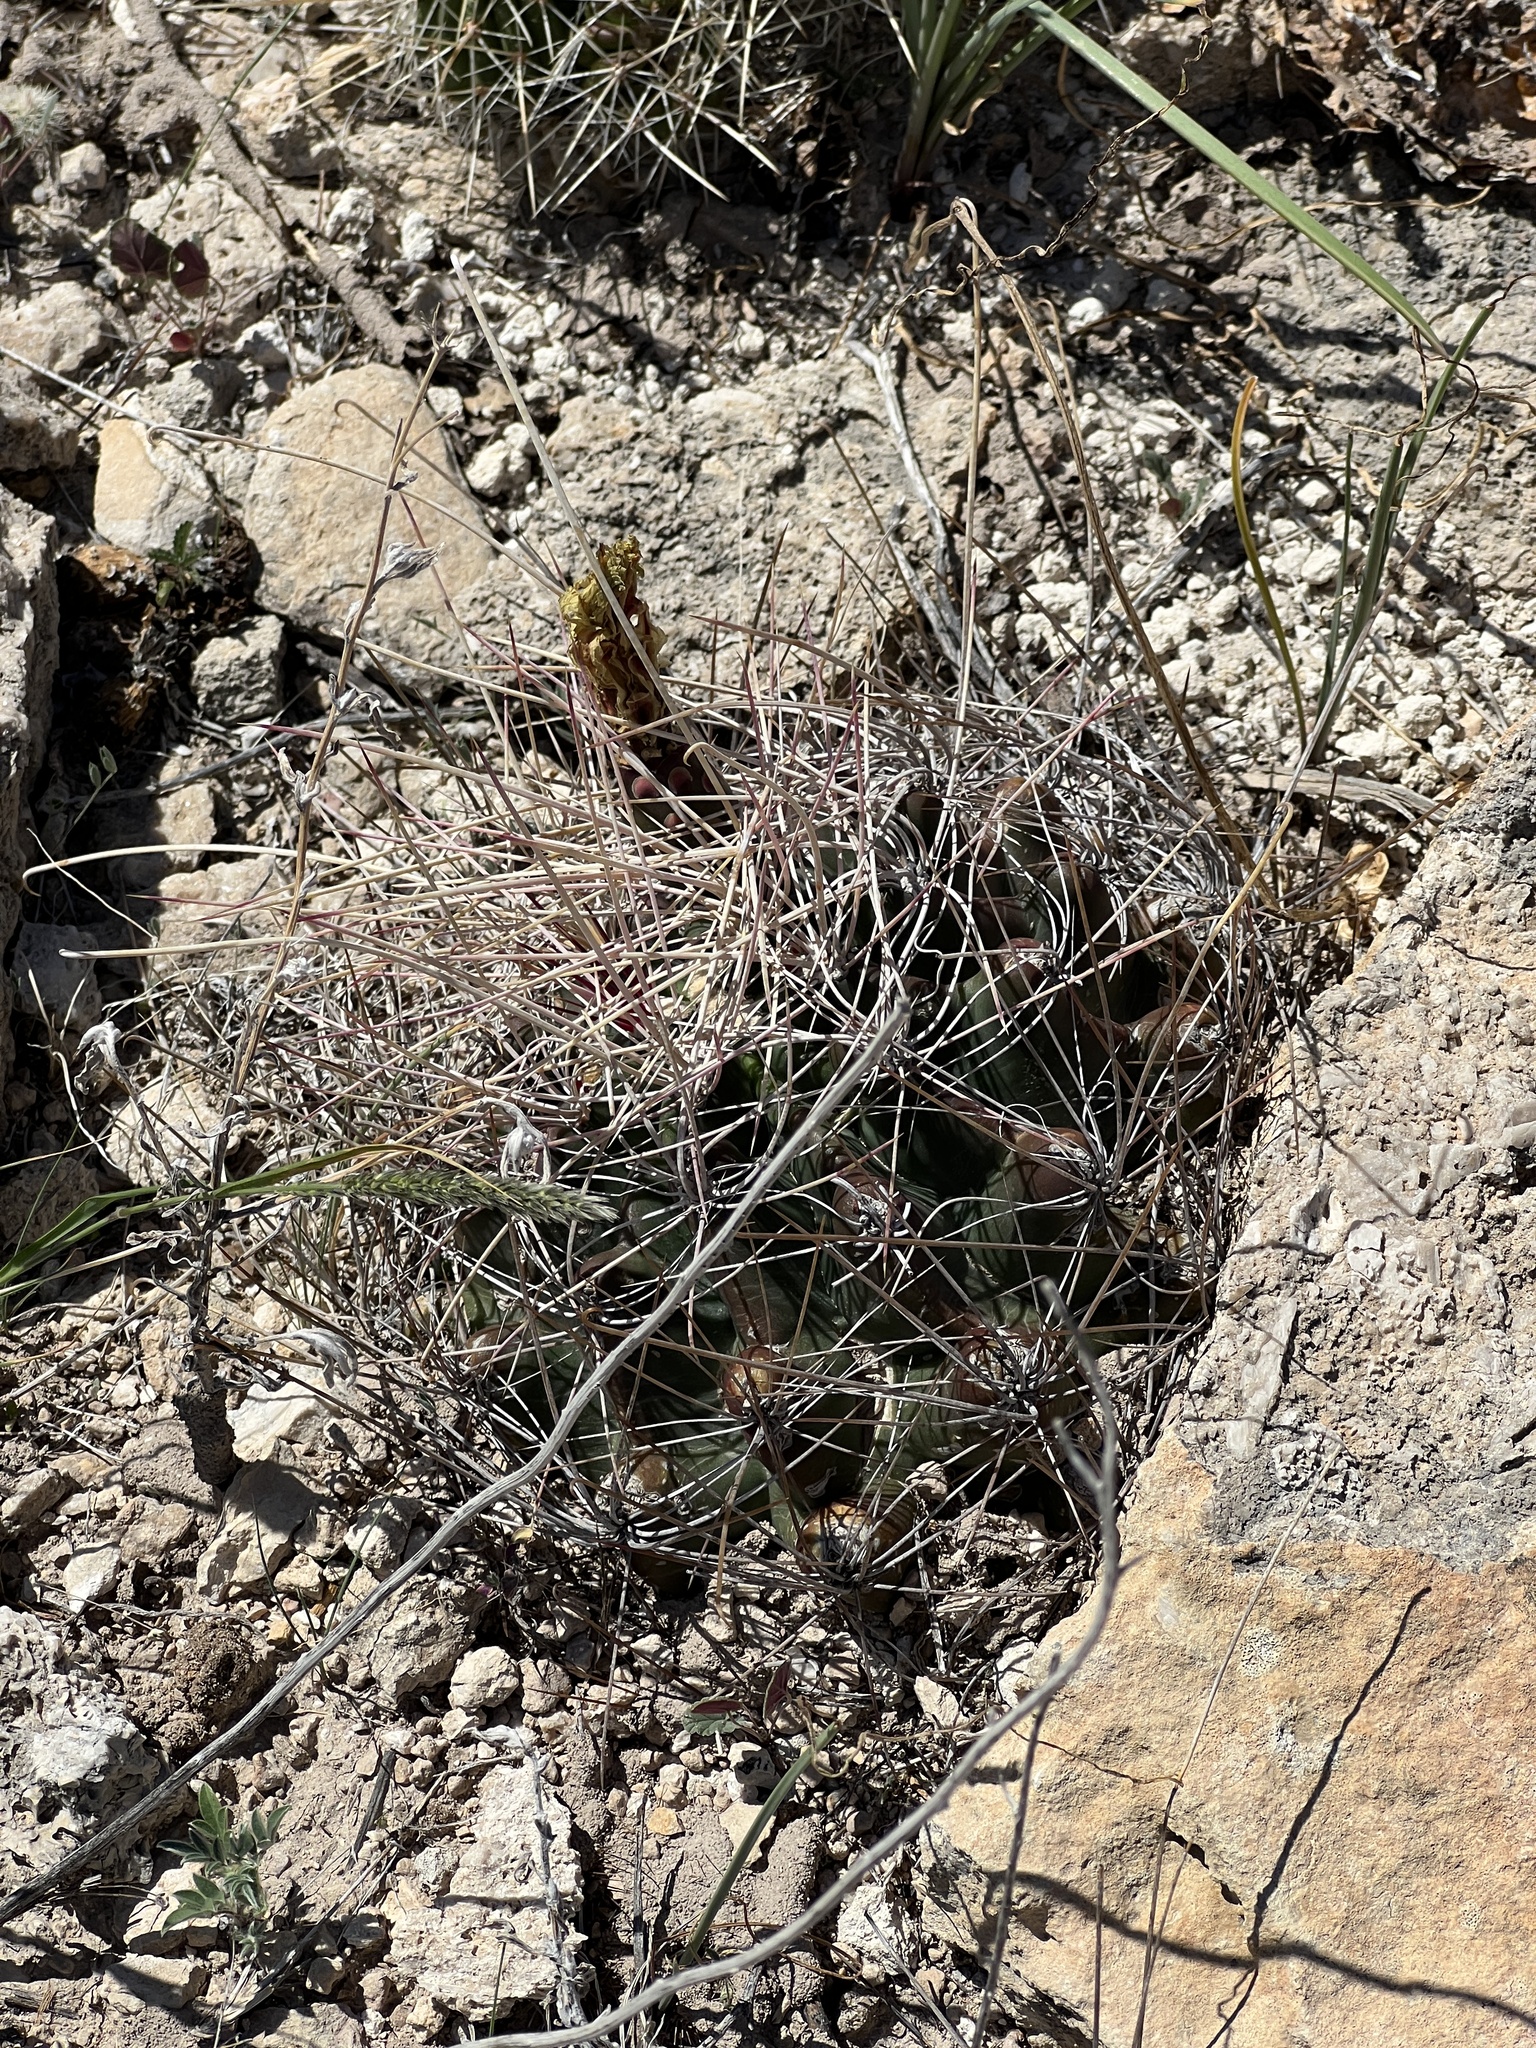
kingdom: Plantae
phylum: Tracheophyta
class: Magnoliopsida
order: Caryophyllales
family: Cactaceae
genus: Bisnaga
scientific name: Bisnaga hamatacantha
